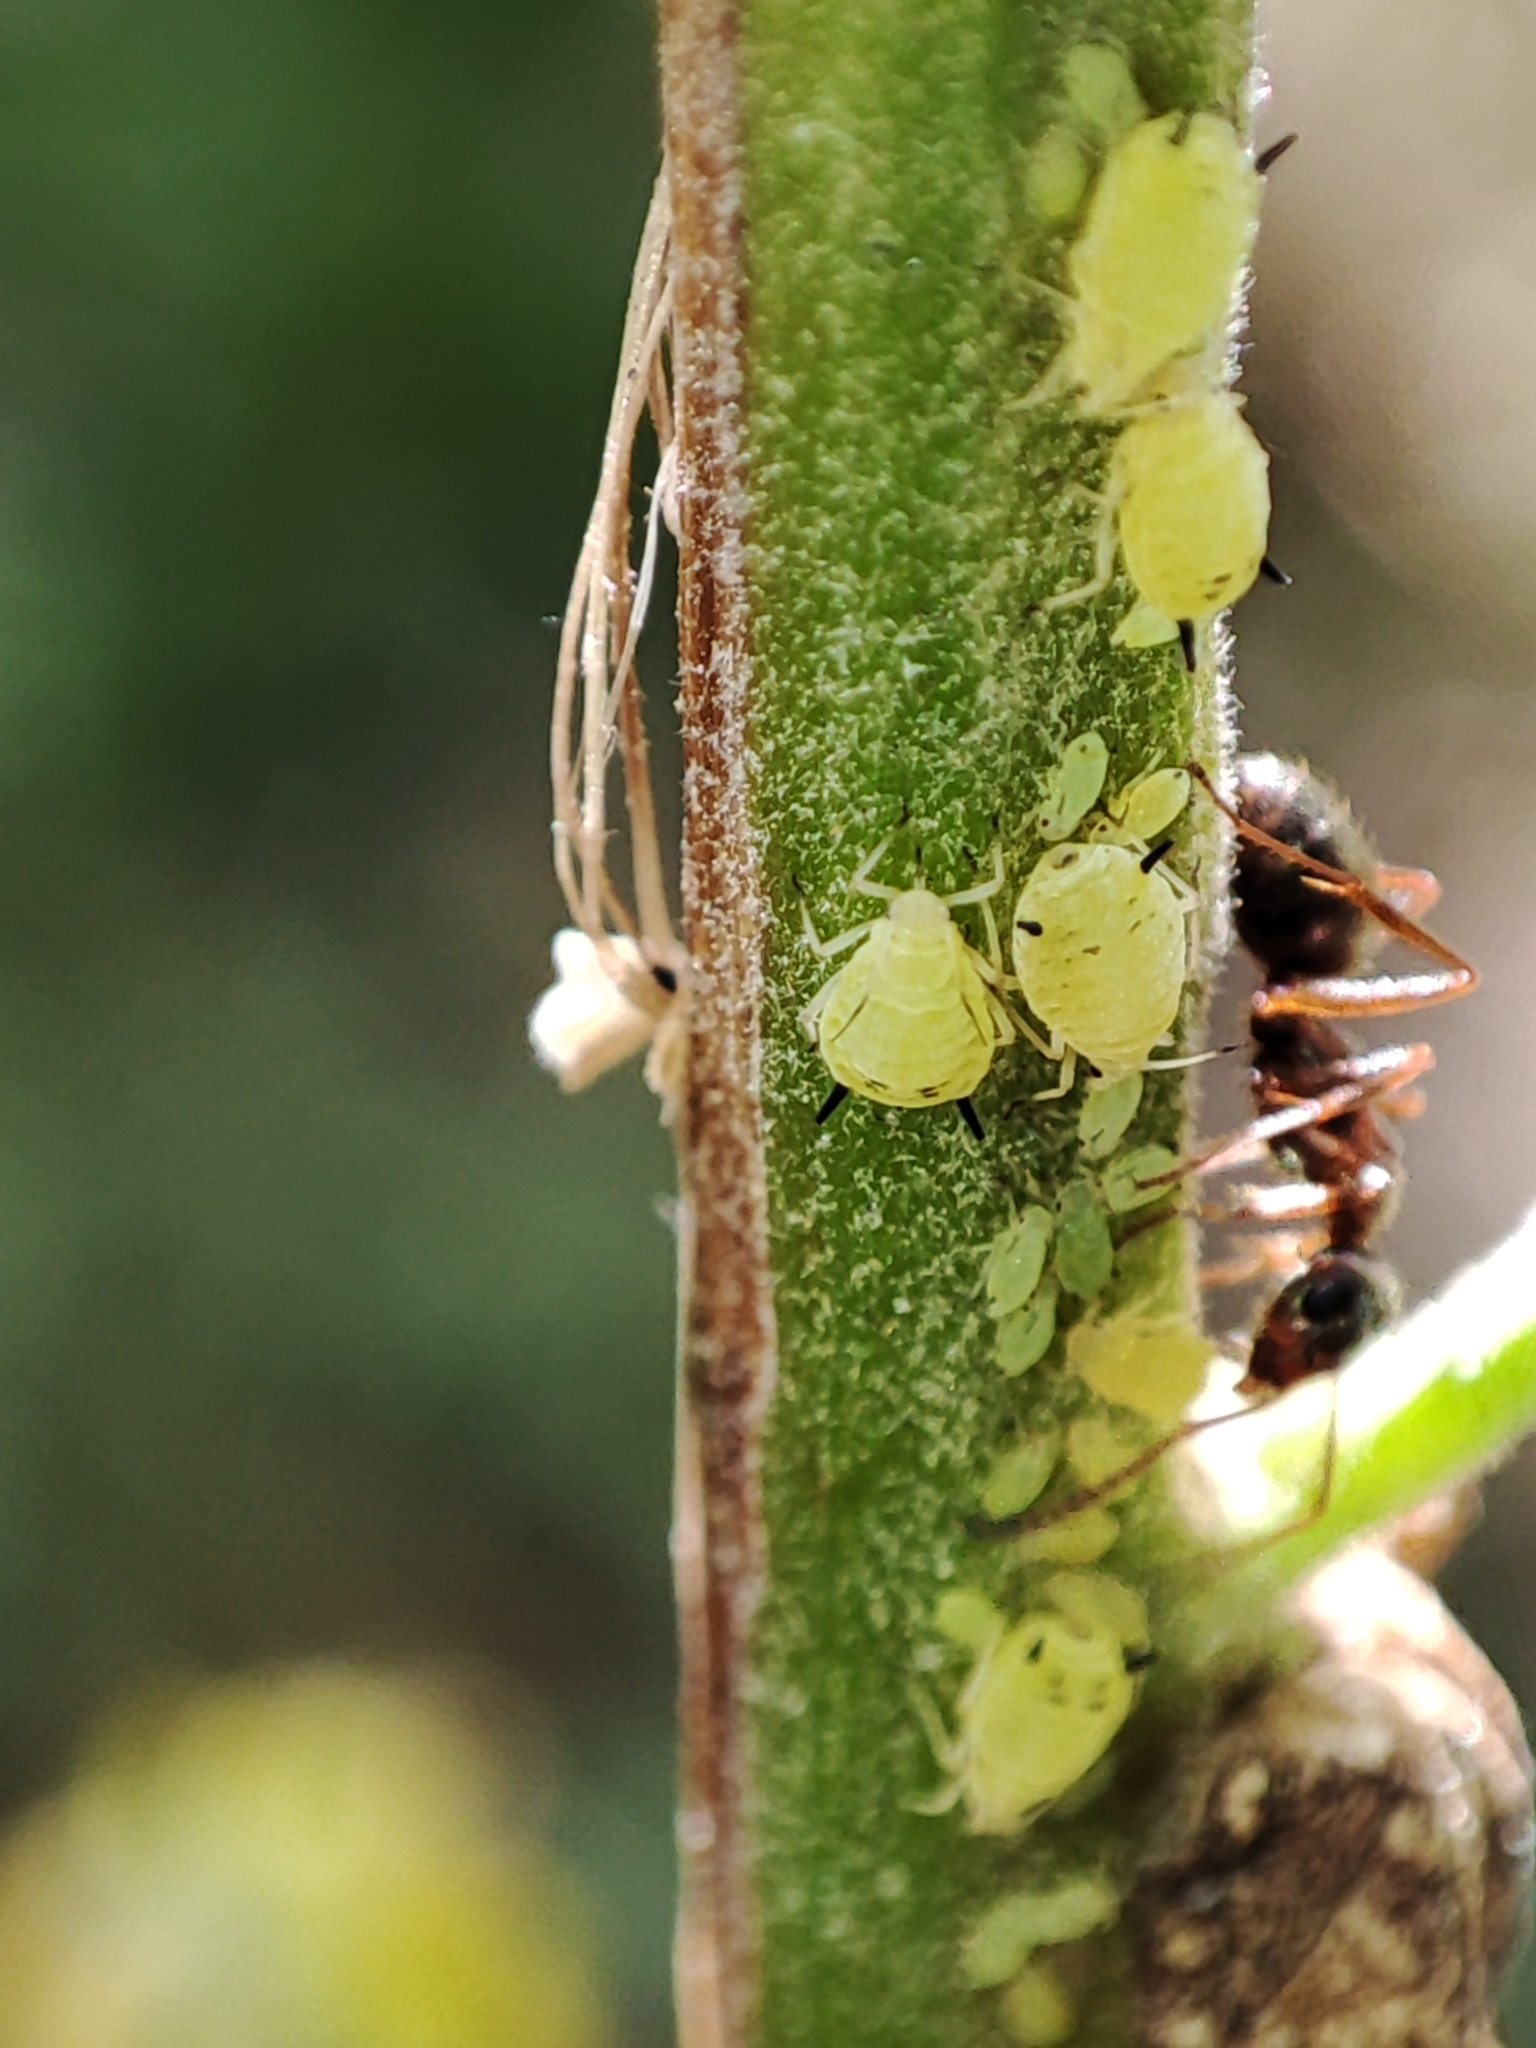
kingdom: Animalia
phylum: Arthropoda
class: Insecta
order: Hemiptera
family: Aphididae
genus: Aphis
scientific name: Aphis verbasci
